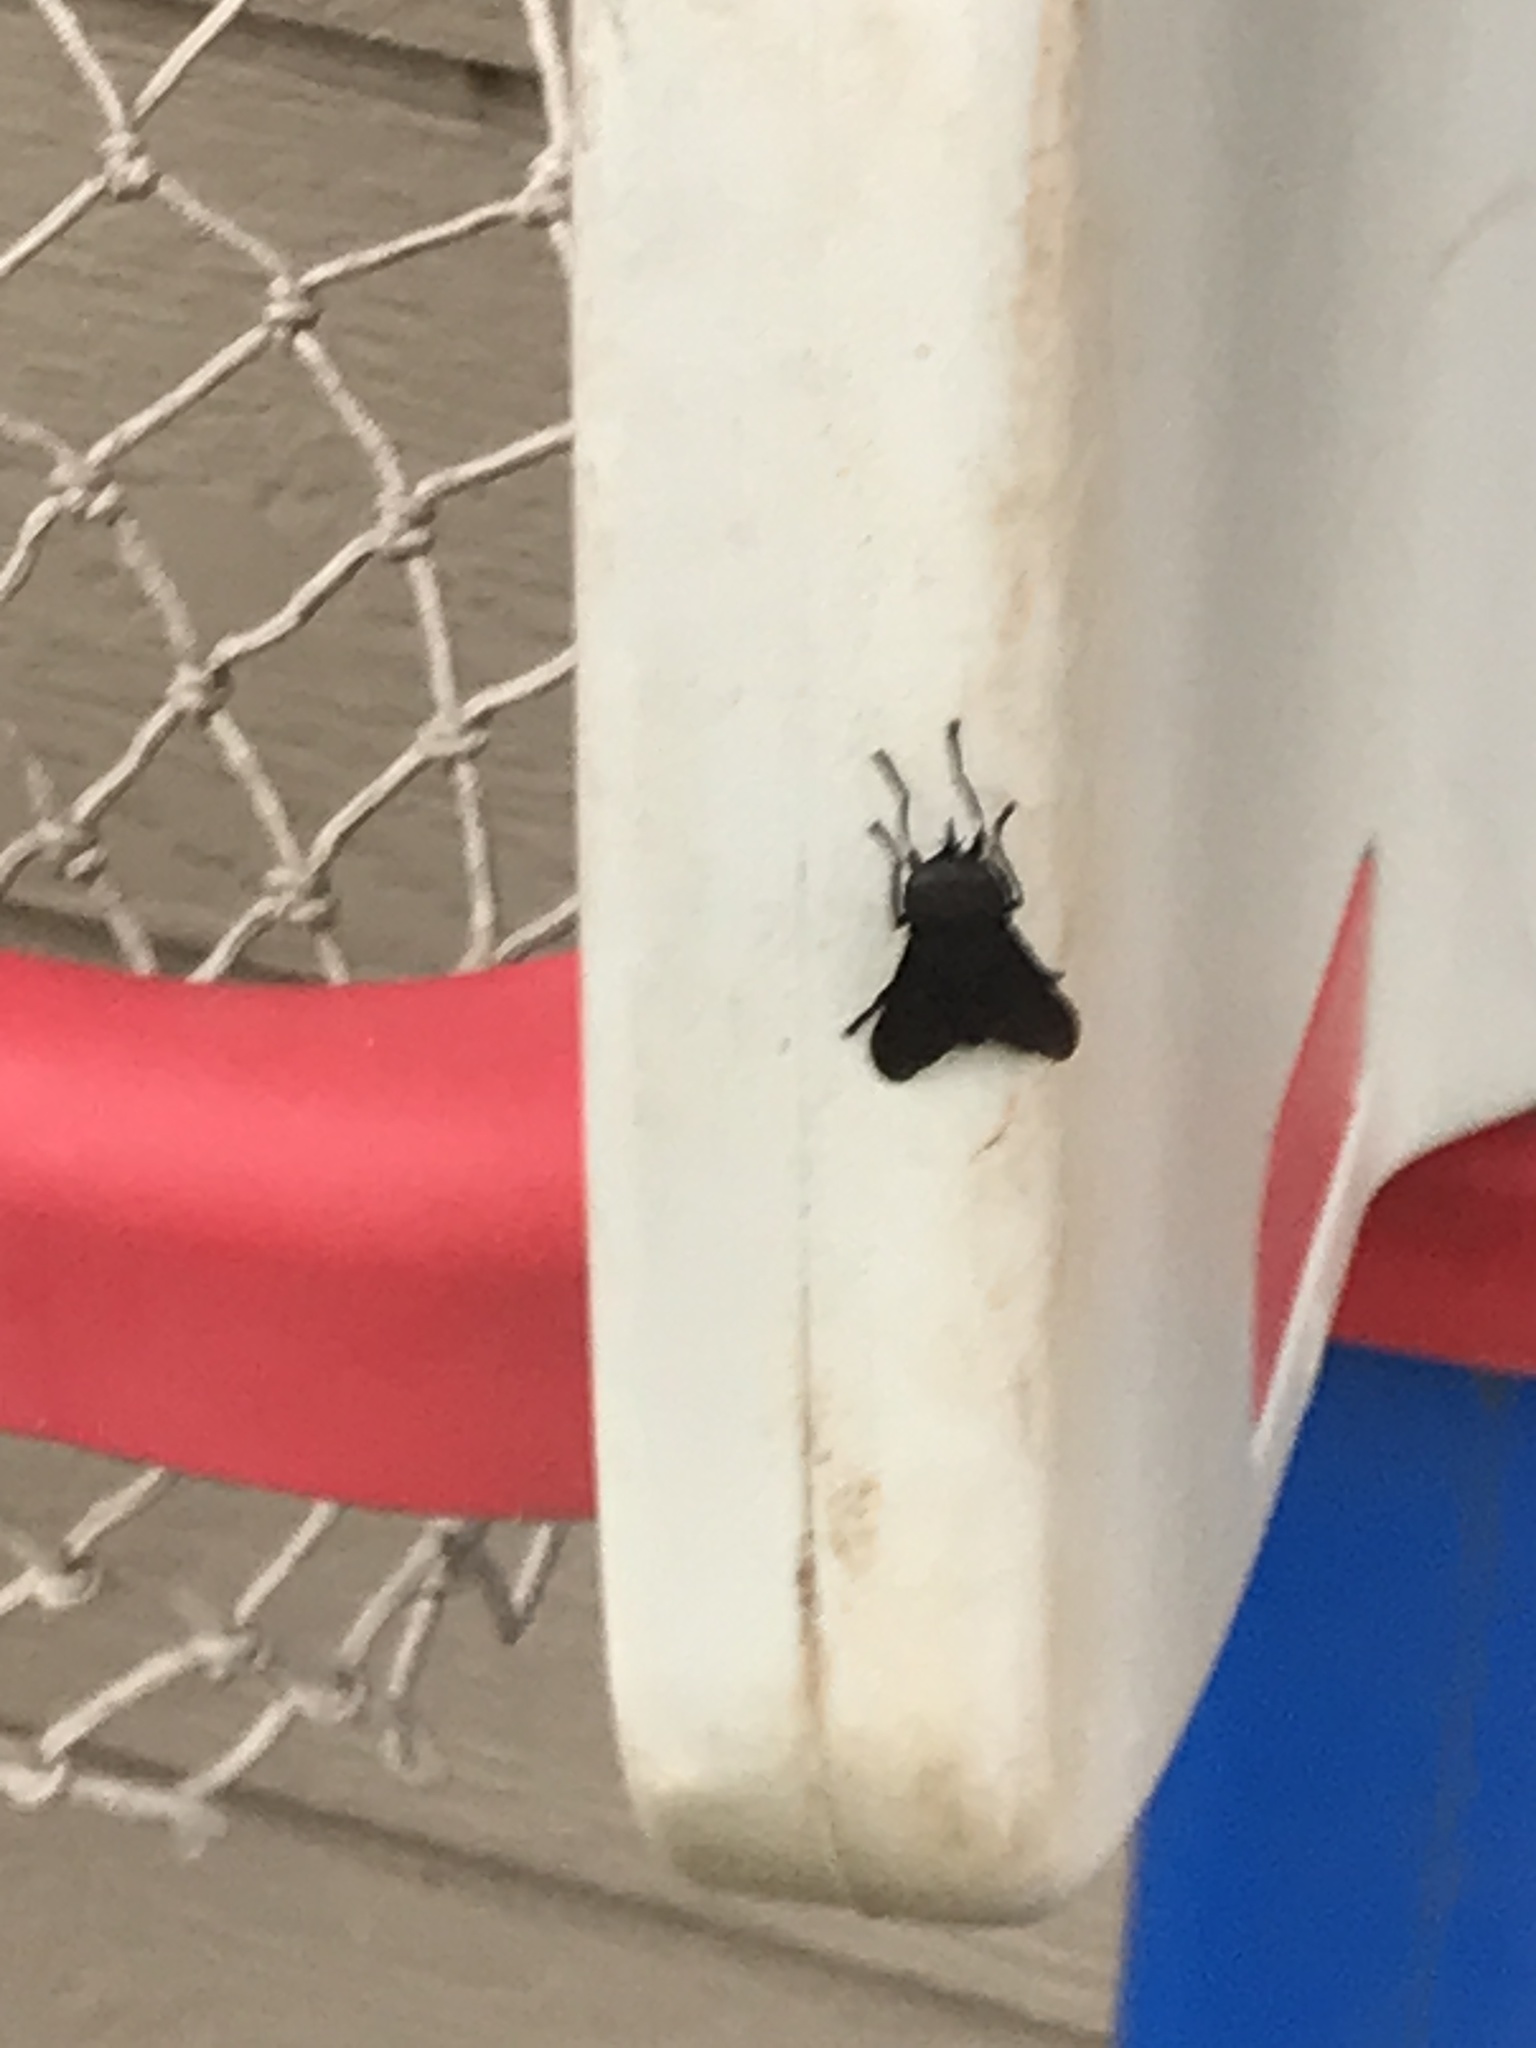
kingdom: Animalia
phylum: Arthropoda
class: Insecta
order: Diptera
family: Tabanidae
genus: Tabanus
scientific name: Tabanus atratus
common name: Black horse fly
